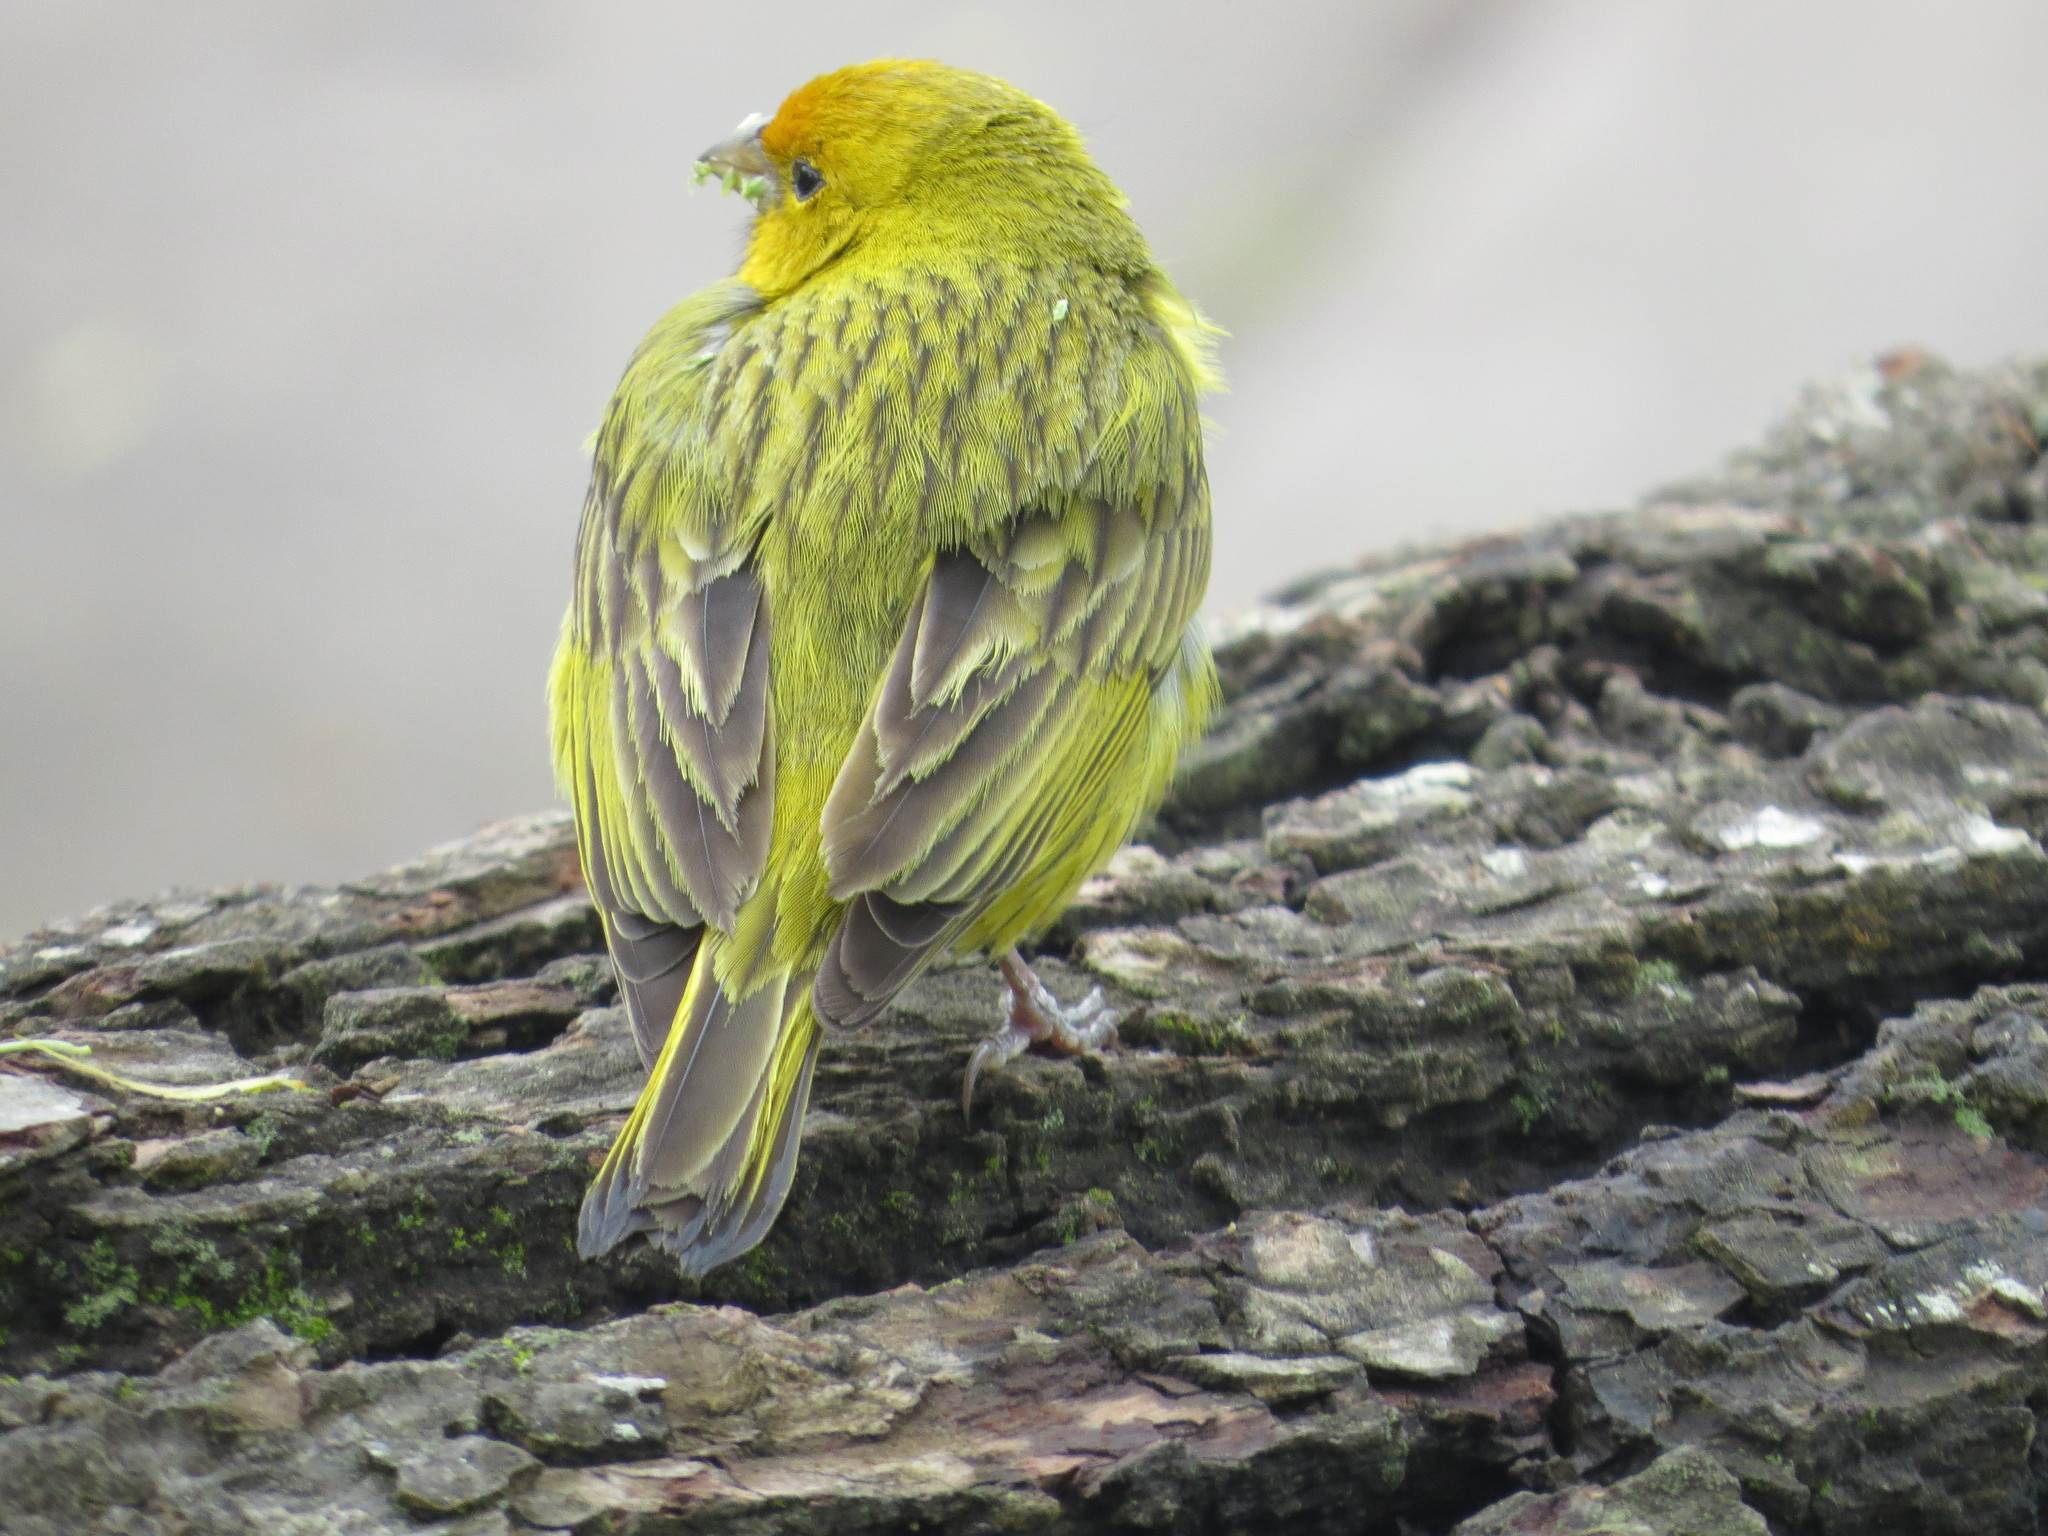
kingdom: Animalia
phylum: Chordata
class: Aves
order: Passeriformes
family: Thraupidae
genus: Sicalis
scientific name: Sicalis flaveola
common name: Saffron finch
